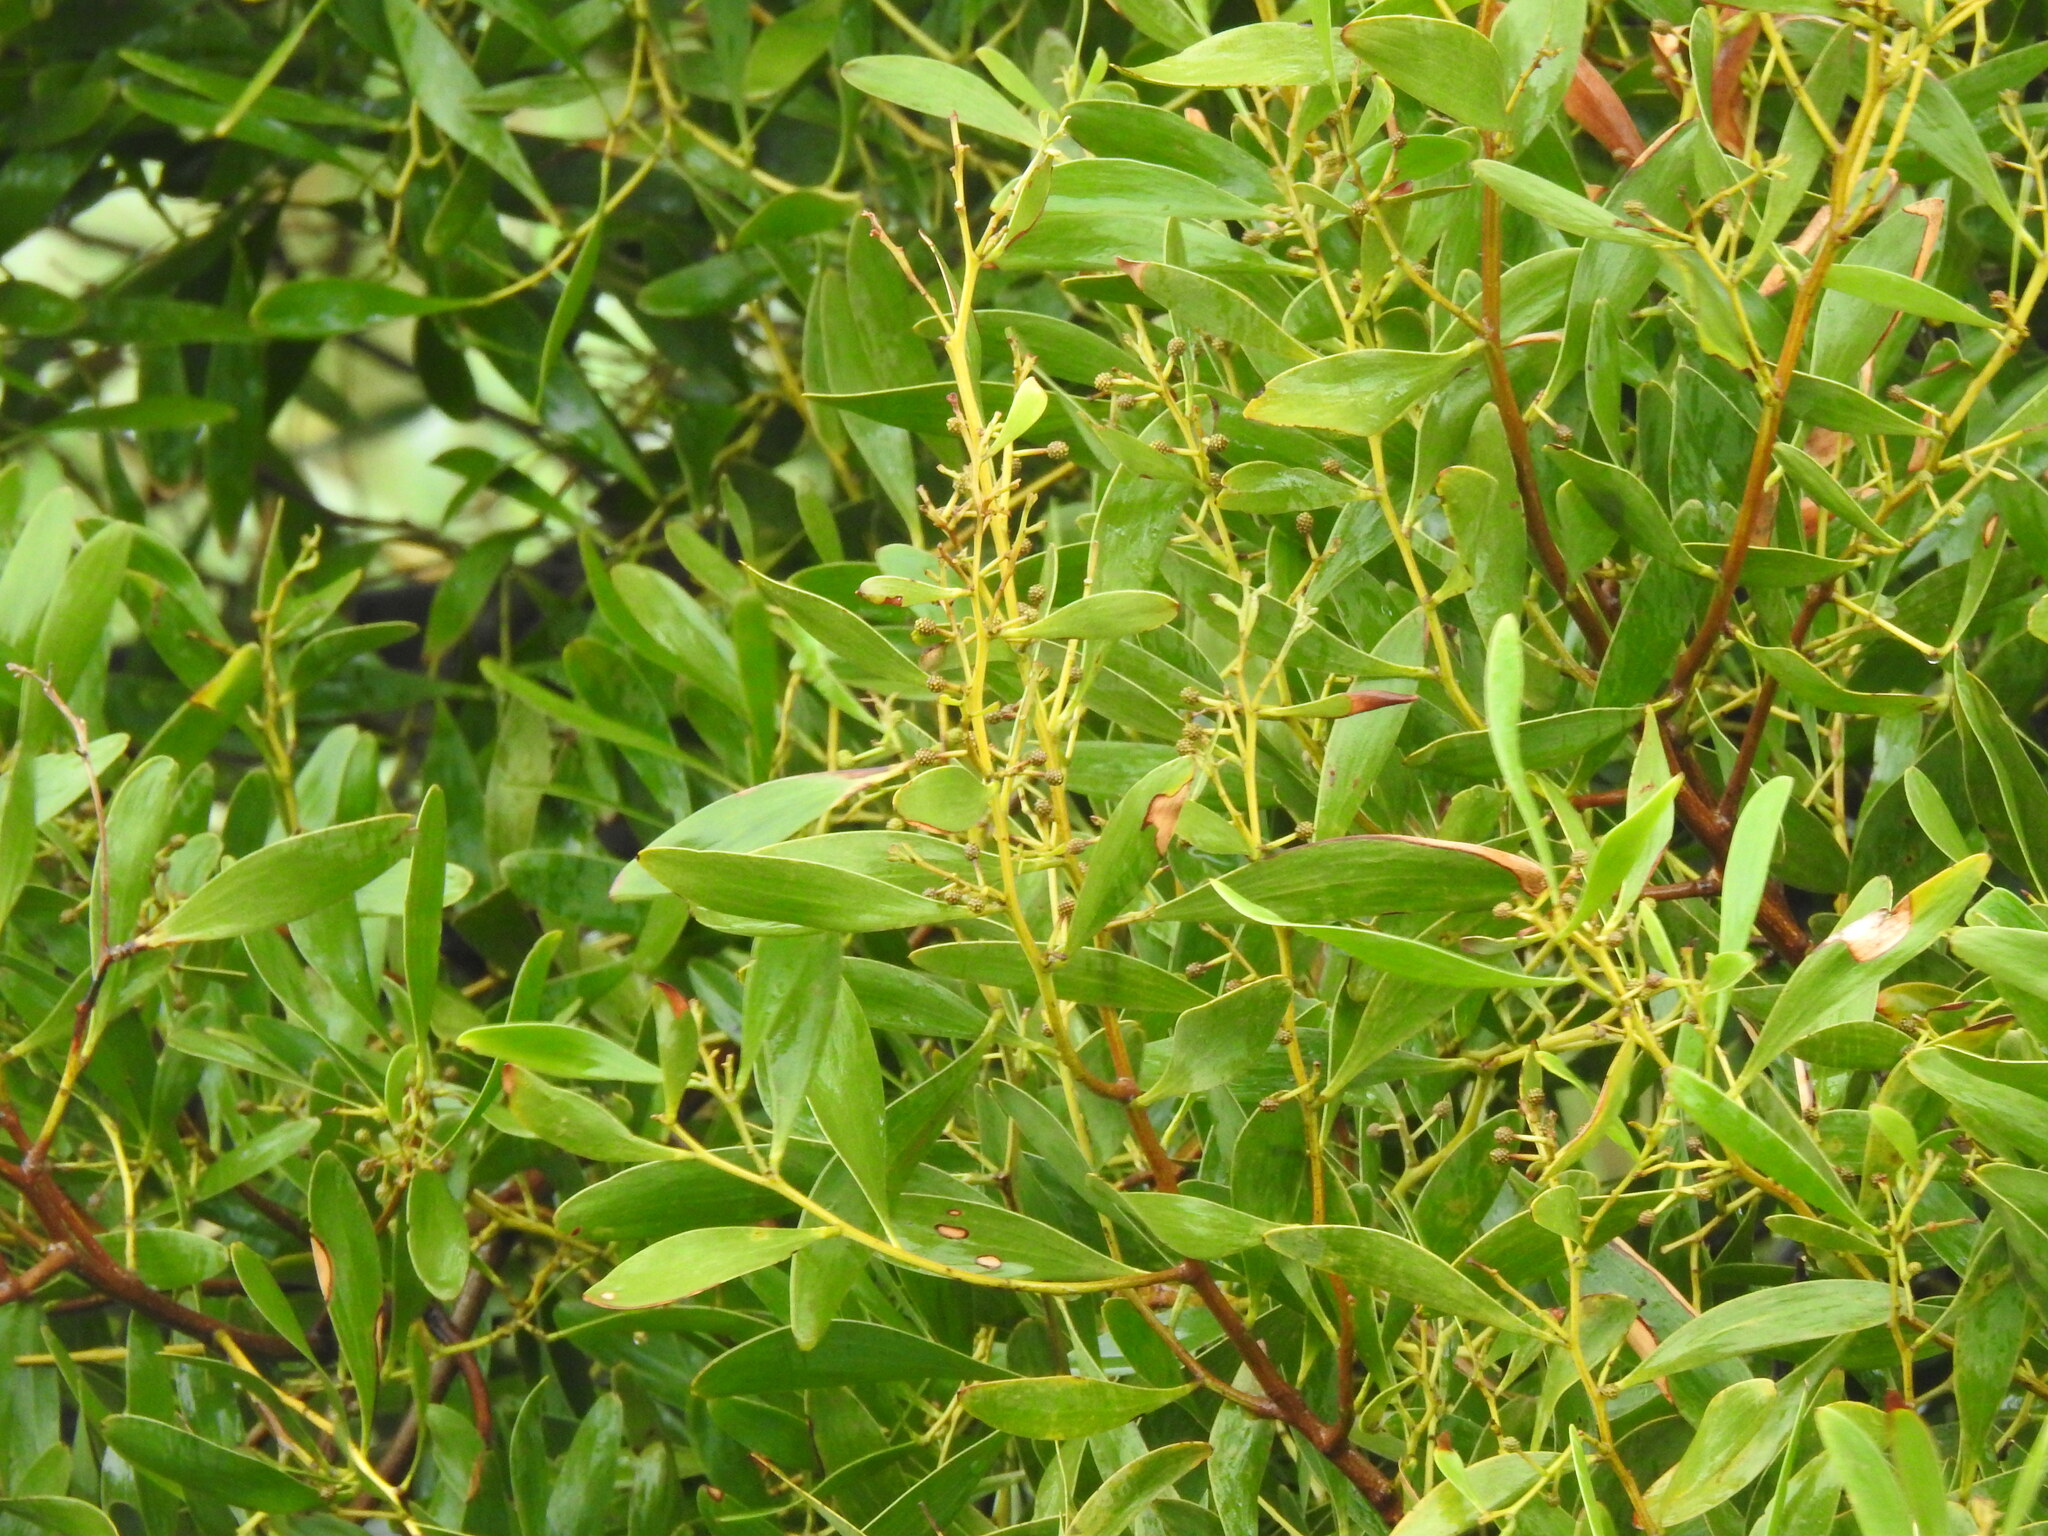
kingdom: Plantae
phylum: Tracheophyta
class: Magnoliopsida
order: Fabales
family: Fabaceae
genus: Acacia
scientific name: Acacia melanoxylon
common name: Blackwood
